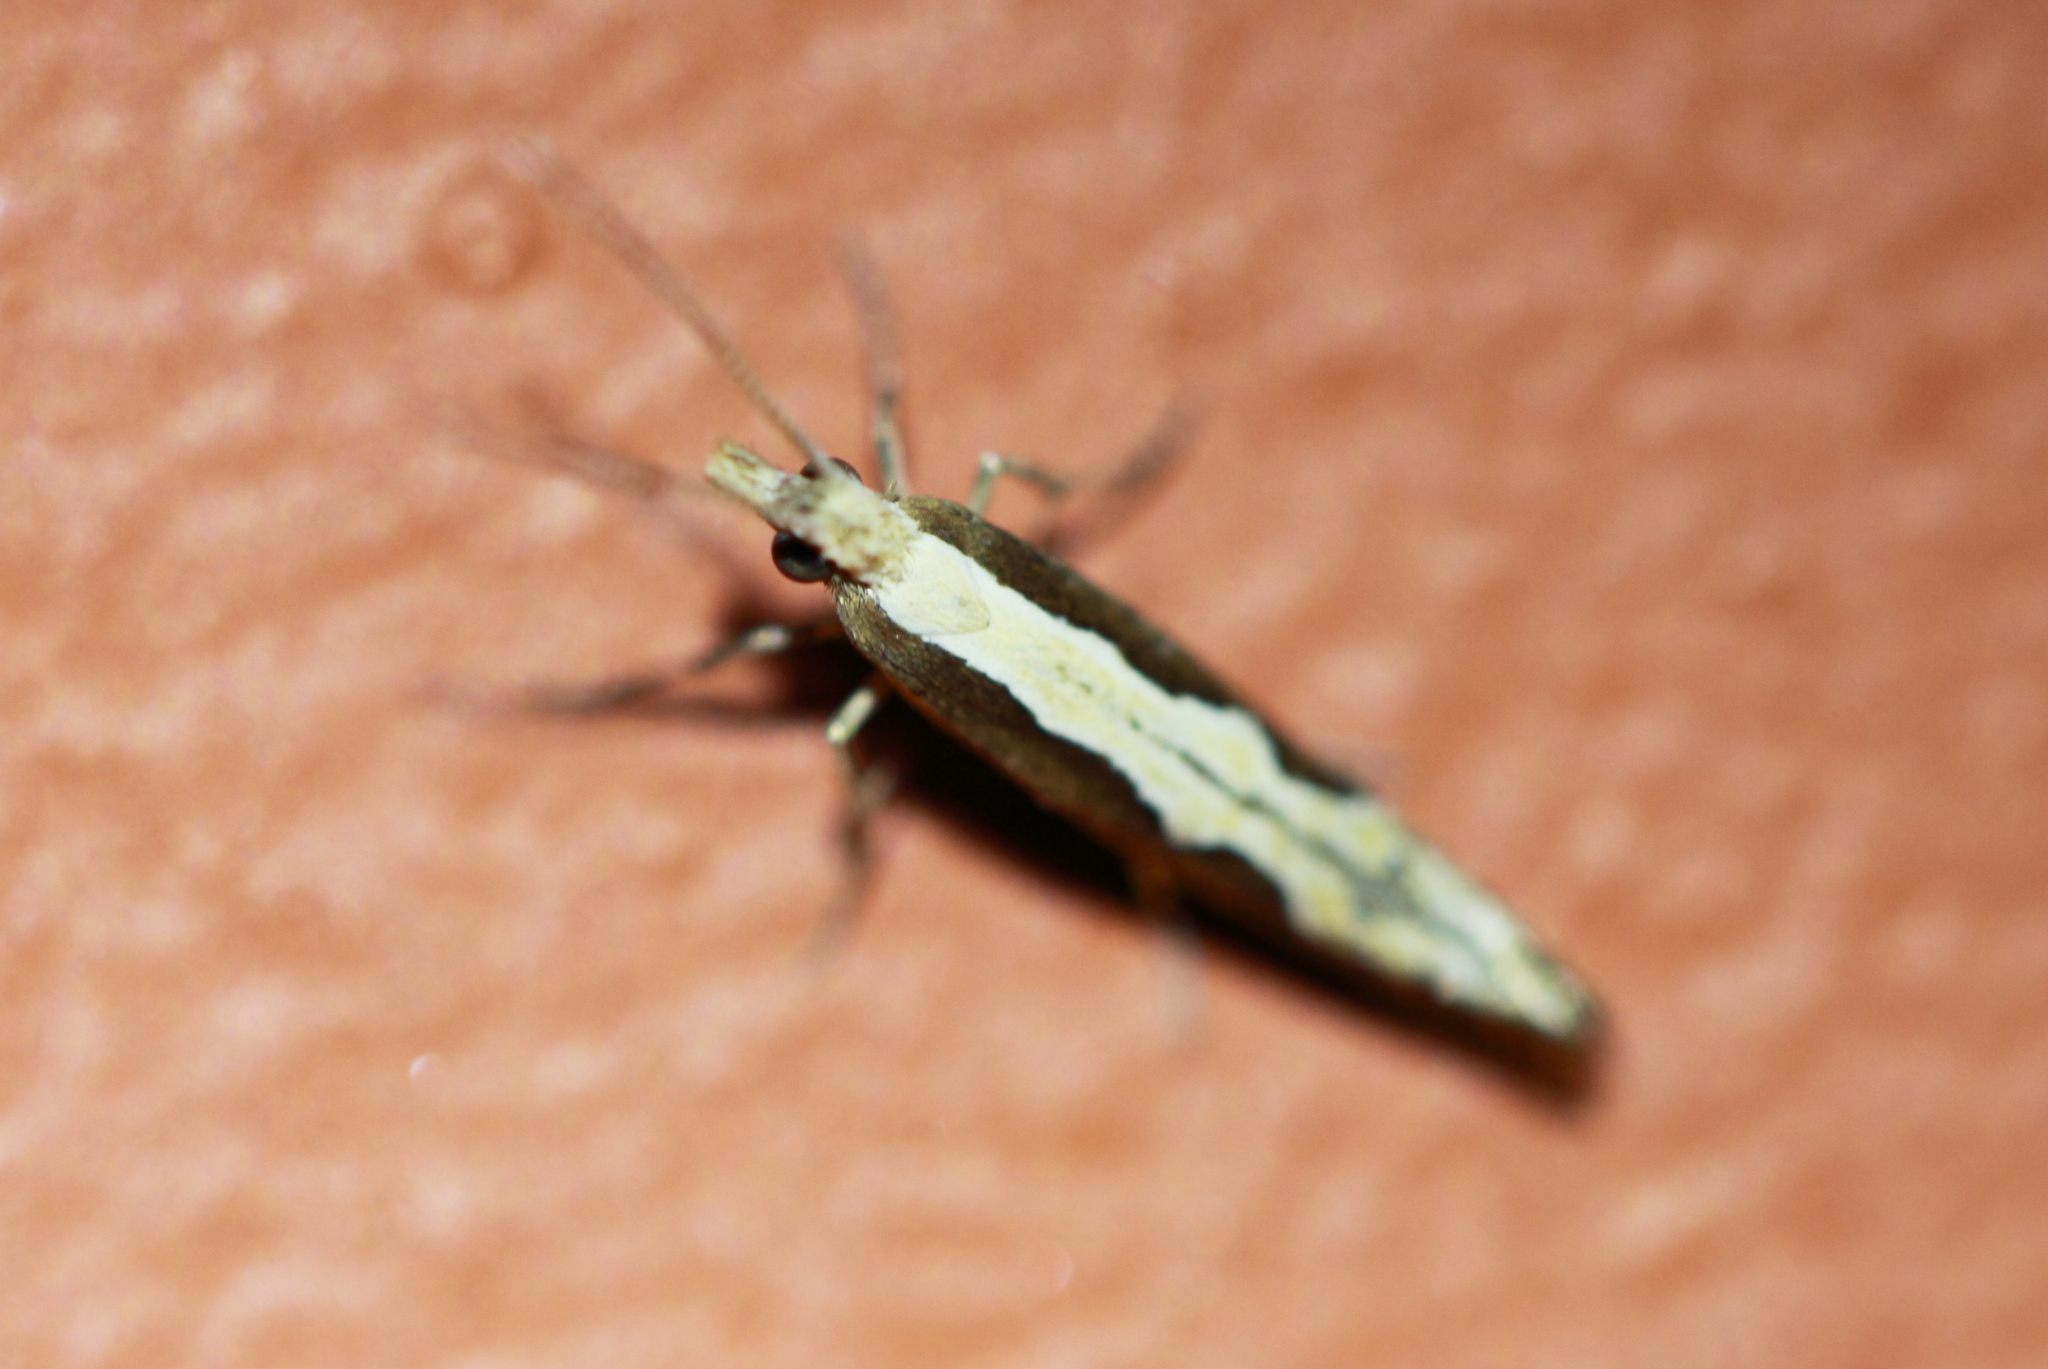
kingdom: Animalia
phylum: Arthropoda
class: Insecta
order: Lepidoptera
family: Plutellidae
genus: Plutella
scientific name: Plutella
